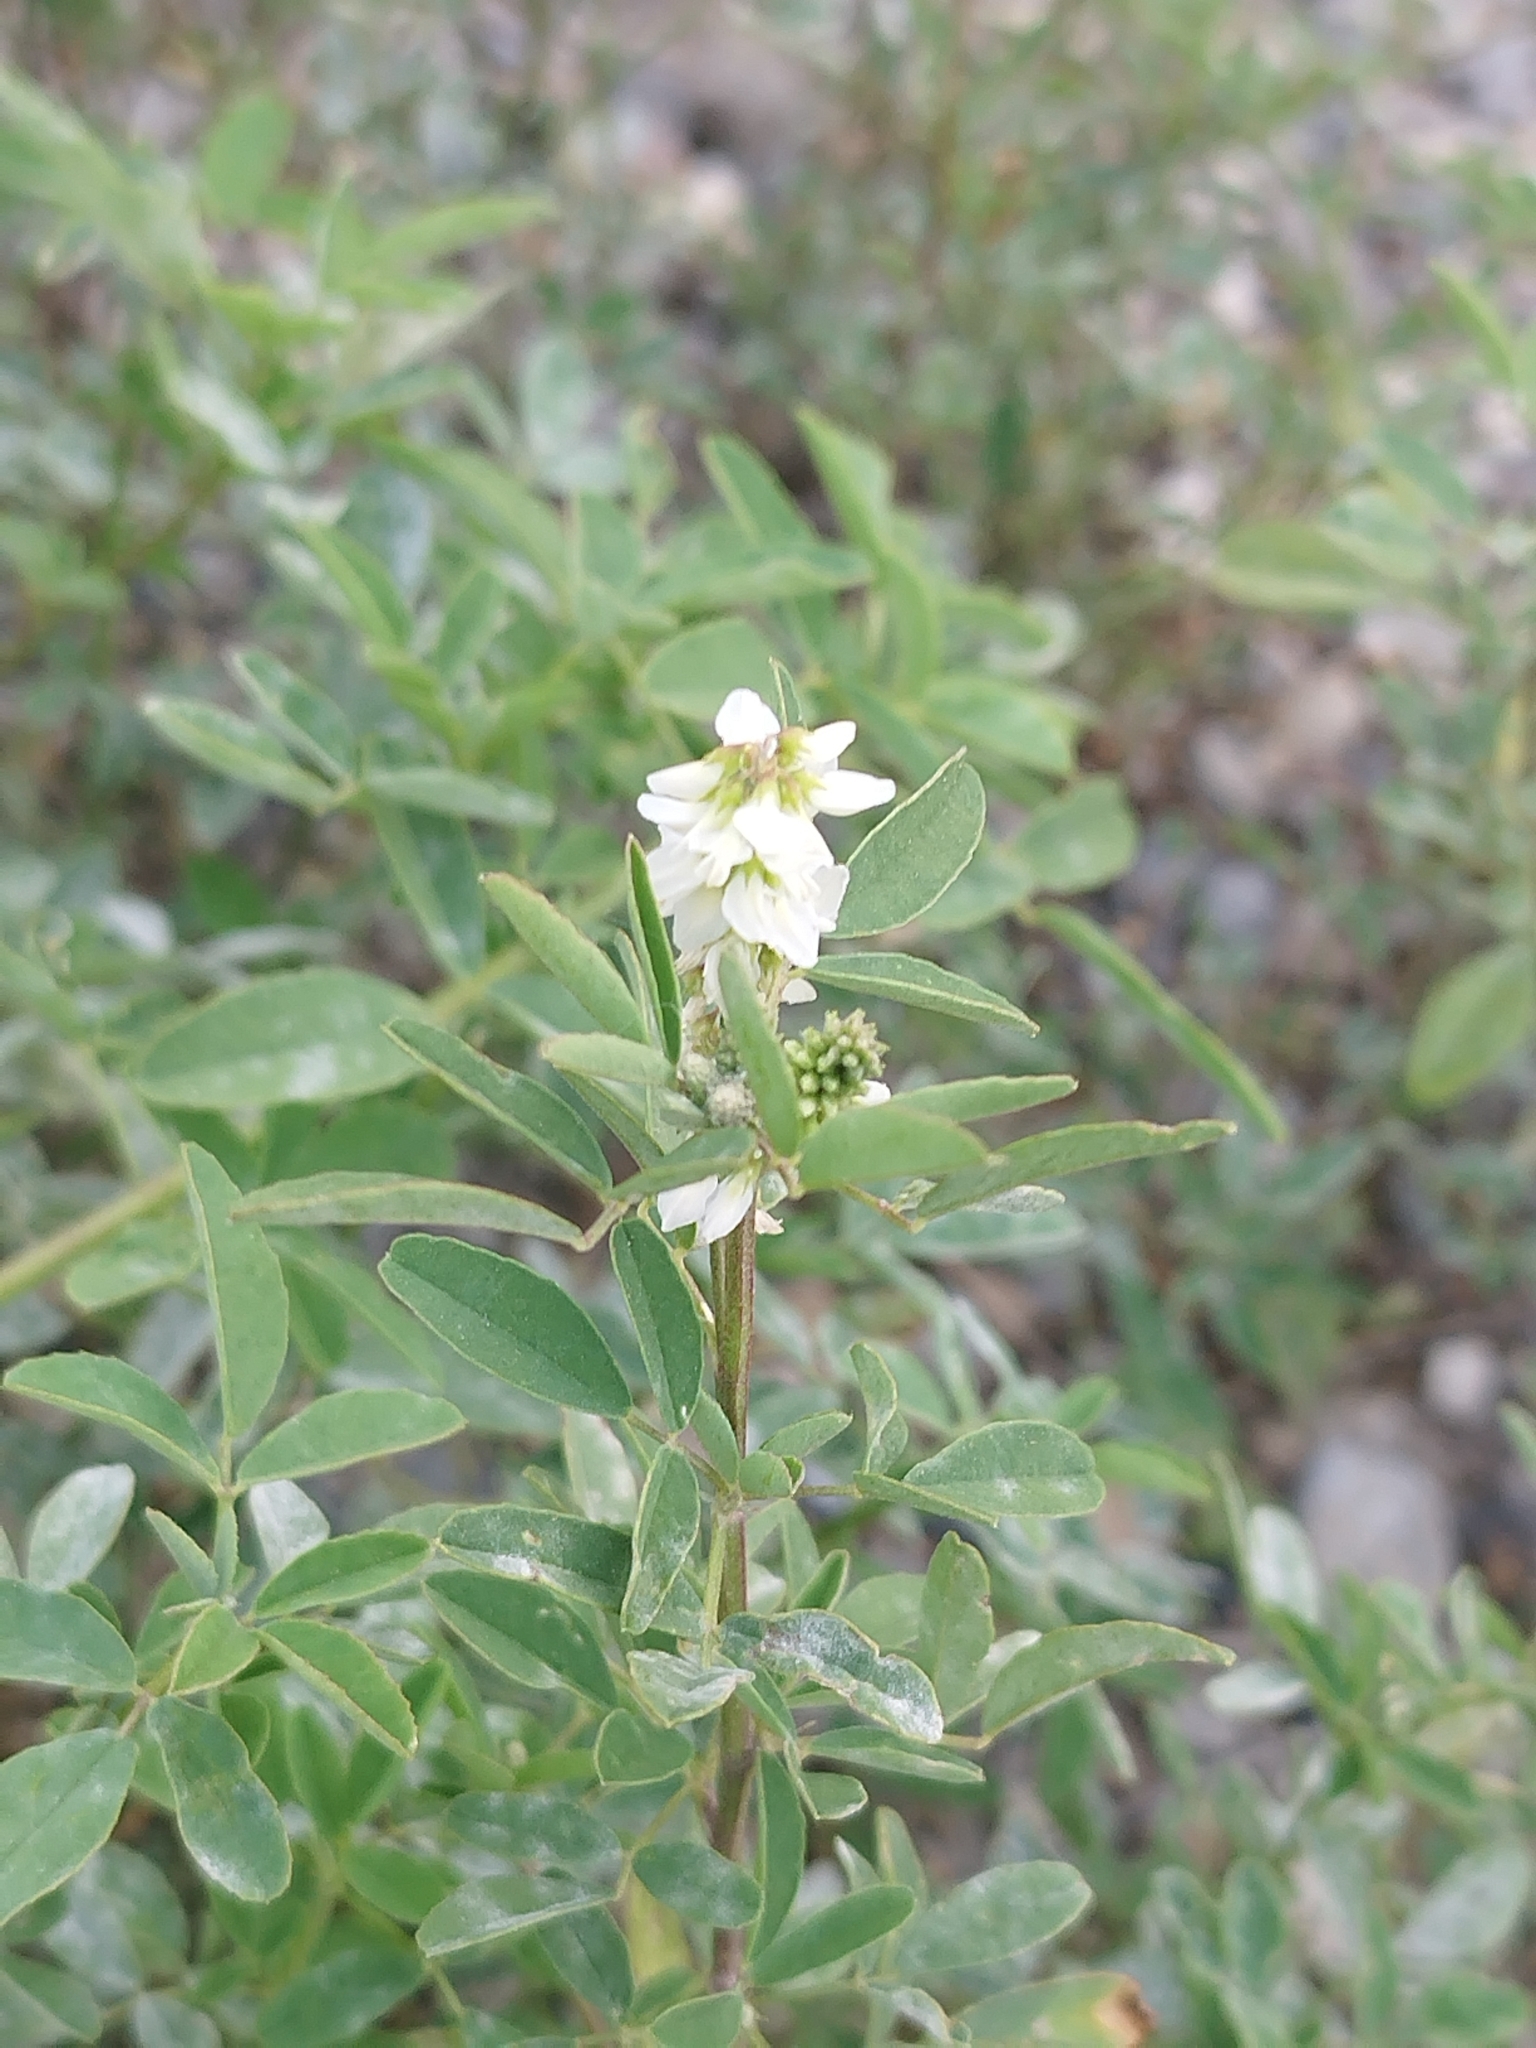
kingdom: Plantae
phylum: Tracheophyta
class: Magnoliopsida
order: Fabales
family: Fabaceae
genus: Melilotus
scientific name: Melilotus albus
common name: White melilot
